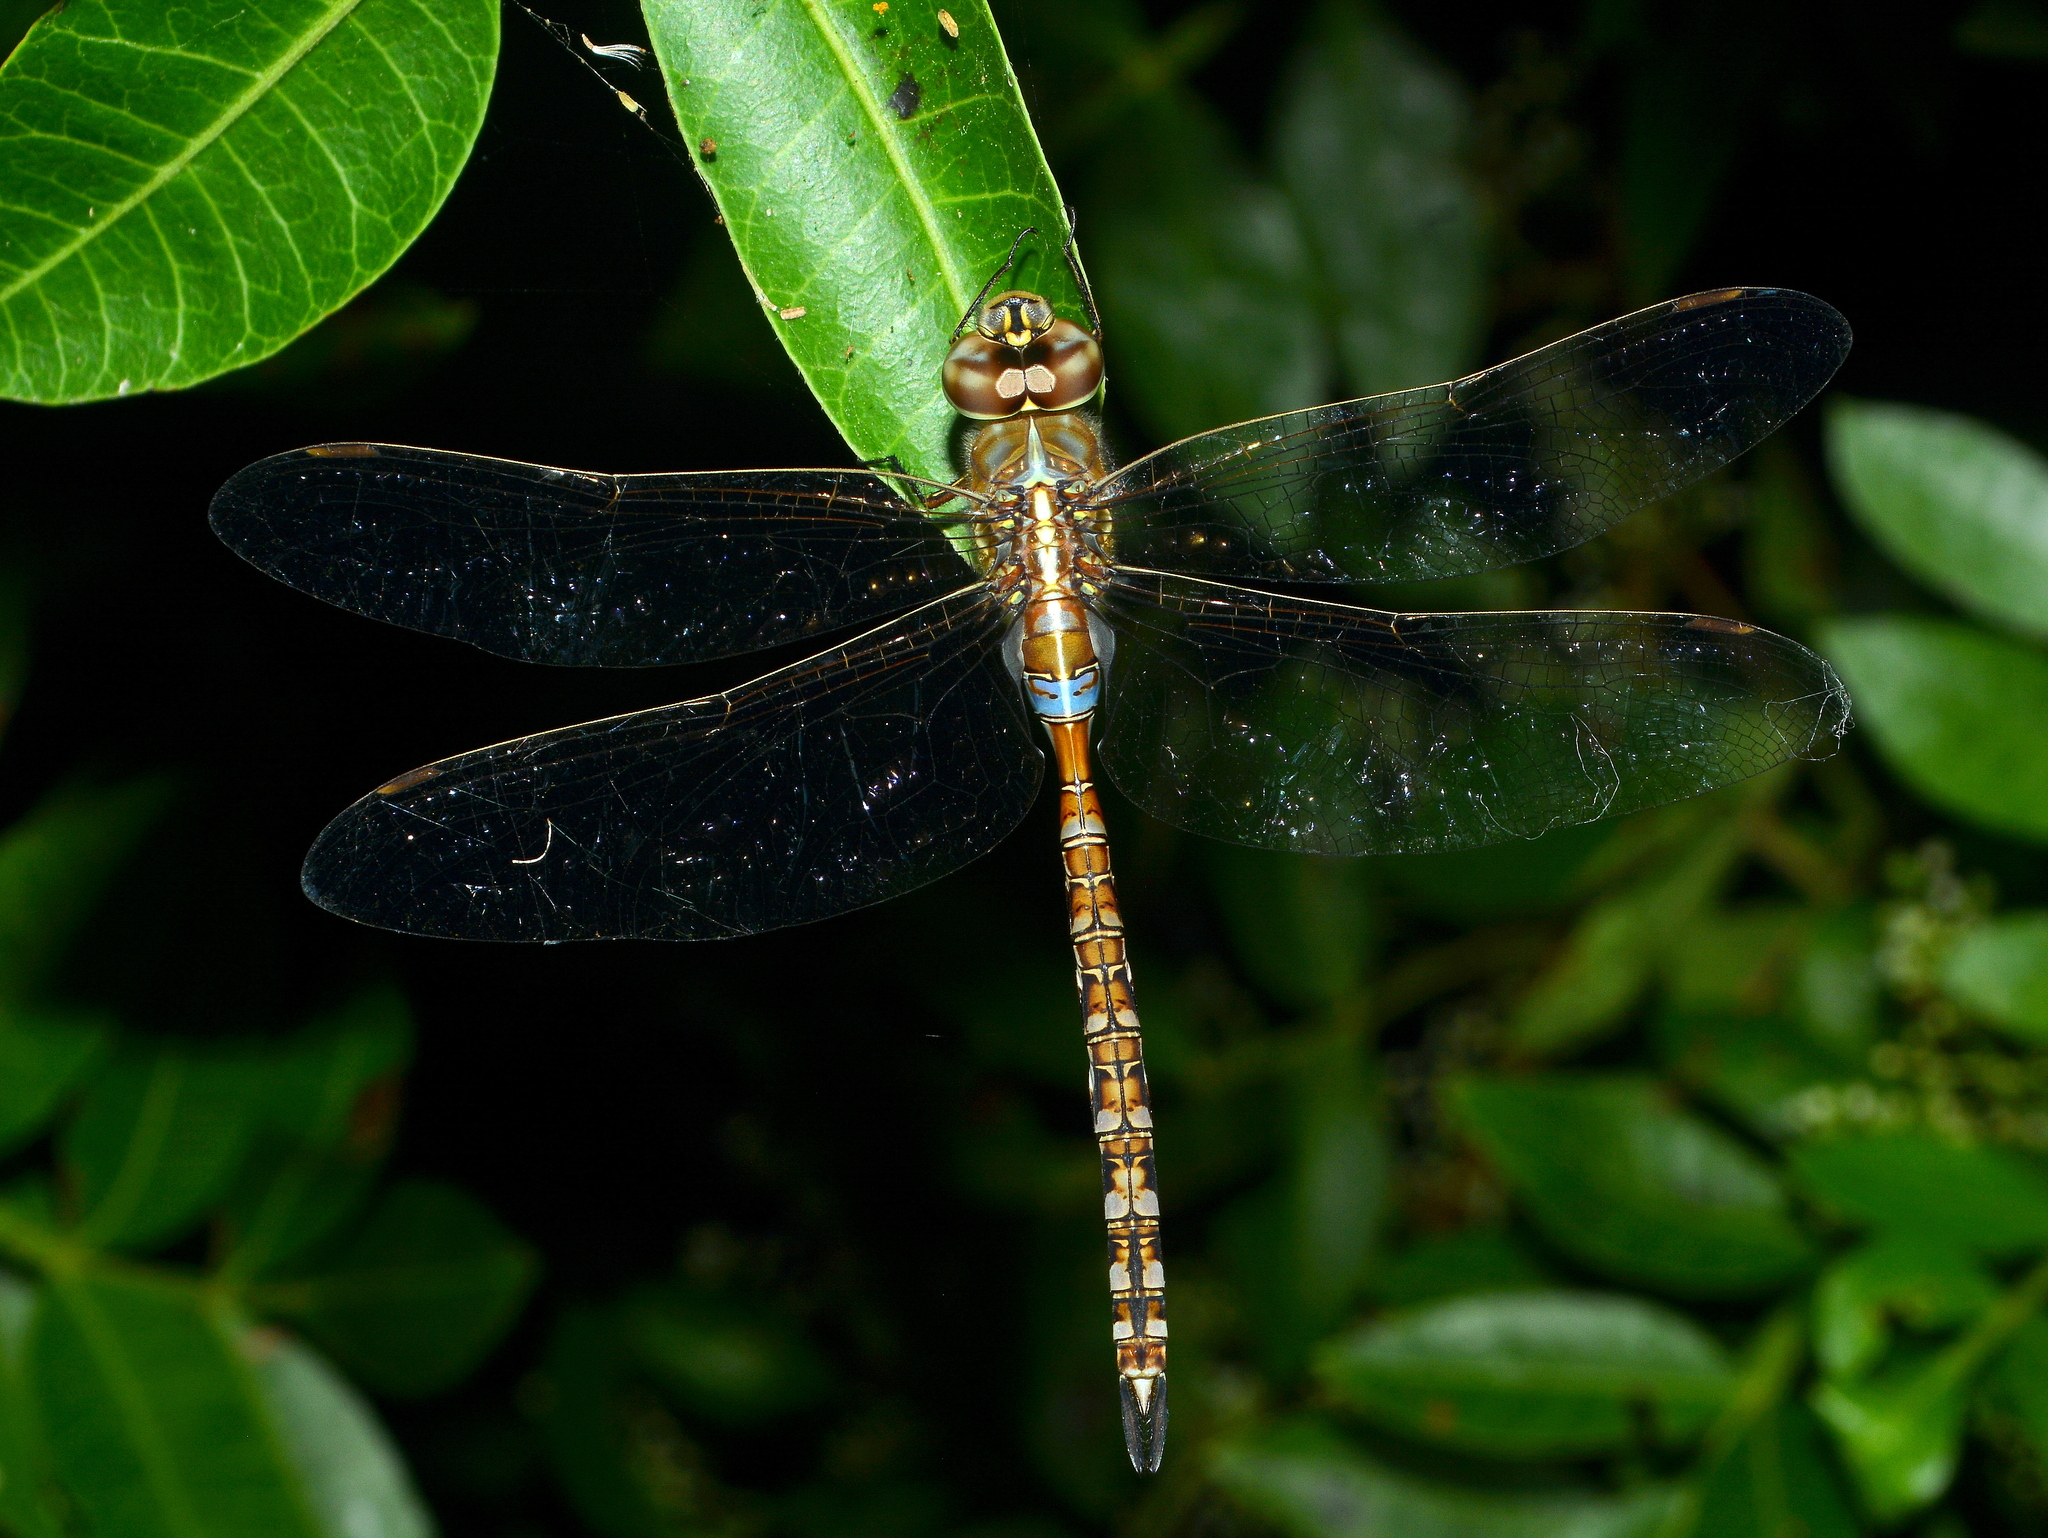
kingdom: Animalia
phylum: Arthropoda
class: Insecta
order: Odonata
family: Aeshnidae
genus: Rhionaeschna
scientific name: Rhionaeschna bonariensis
